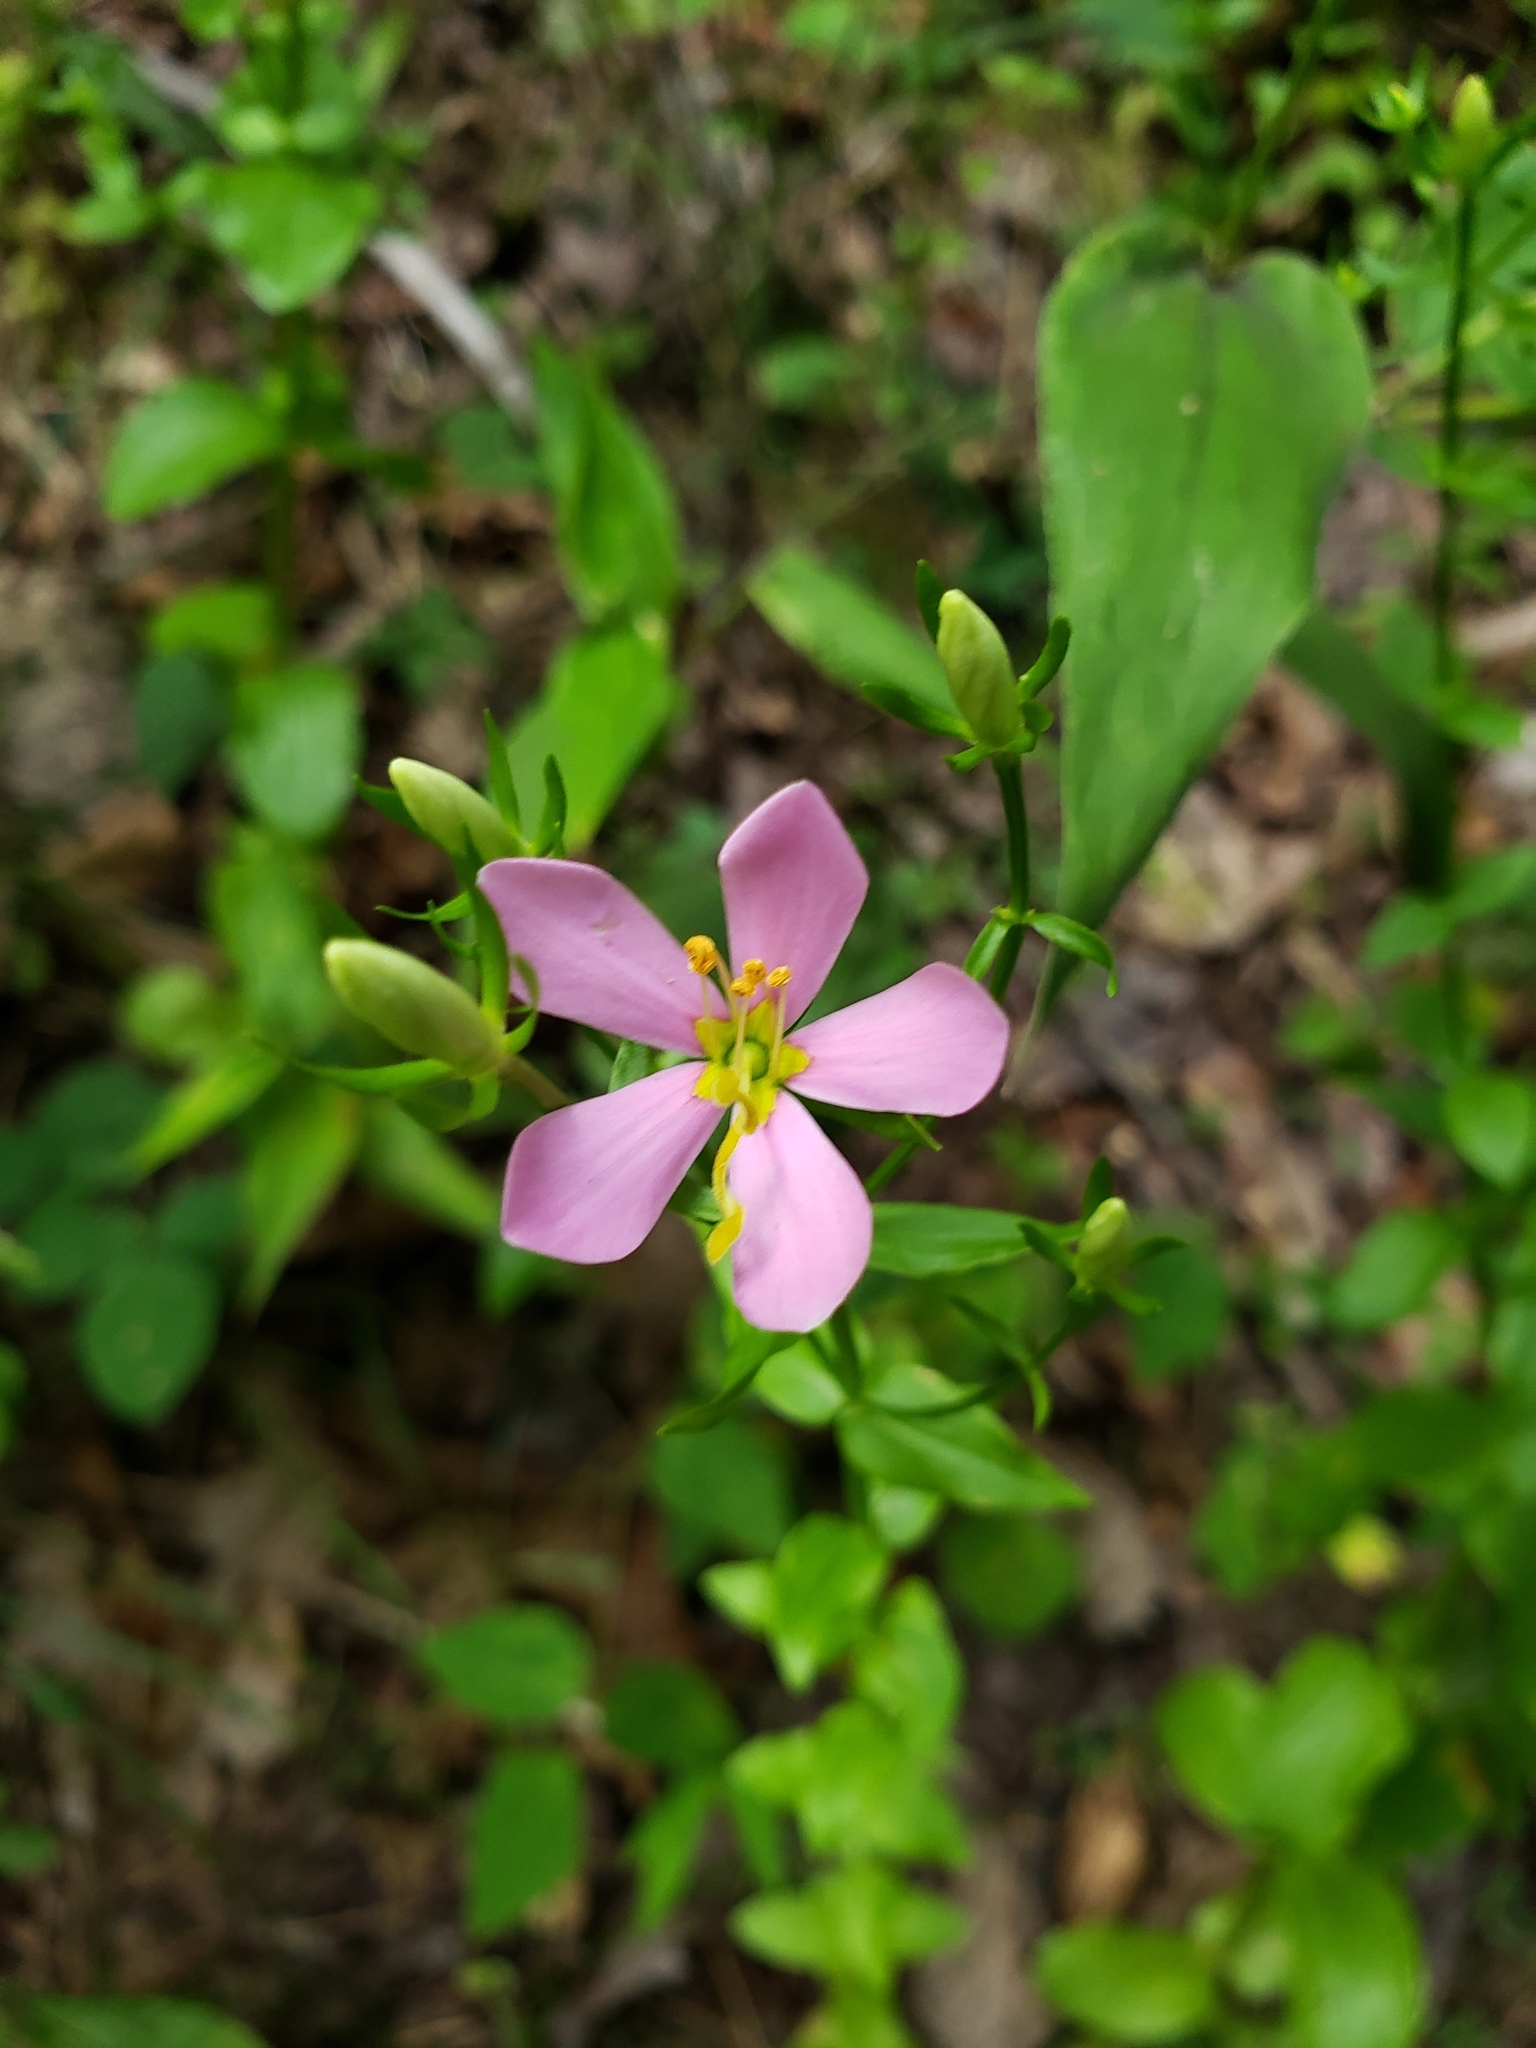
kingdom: Plantae
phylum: Tracheophyta
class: Magnoliopsida
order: Gentianales
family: Gentianaceae
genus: Sabatia
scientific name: Sabatia angularis
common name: Rose-pink
